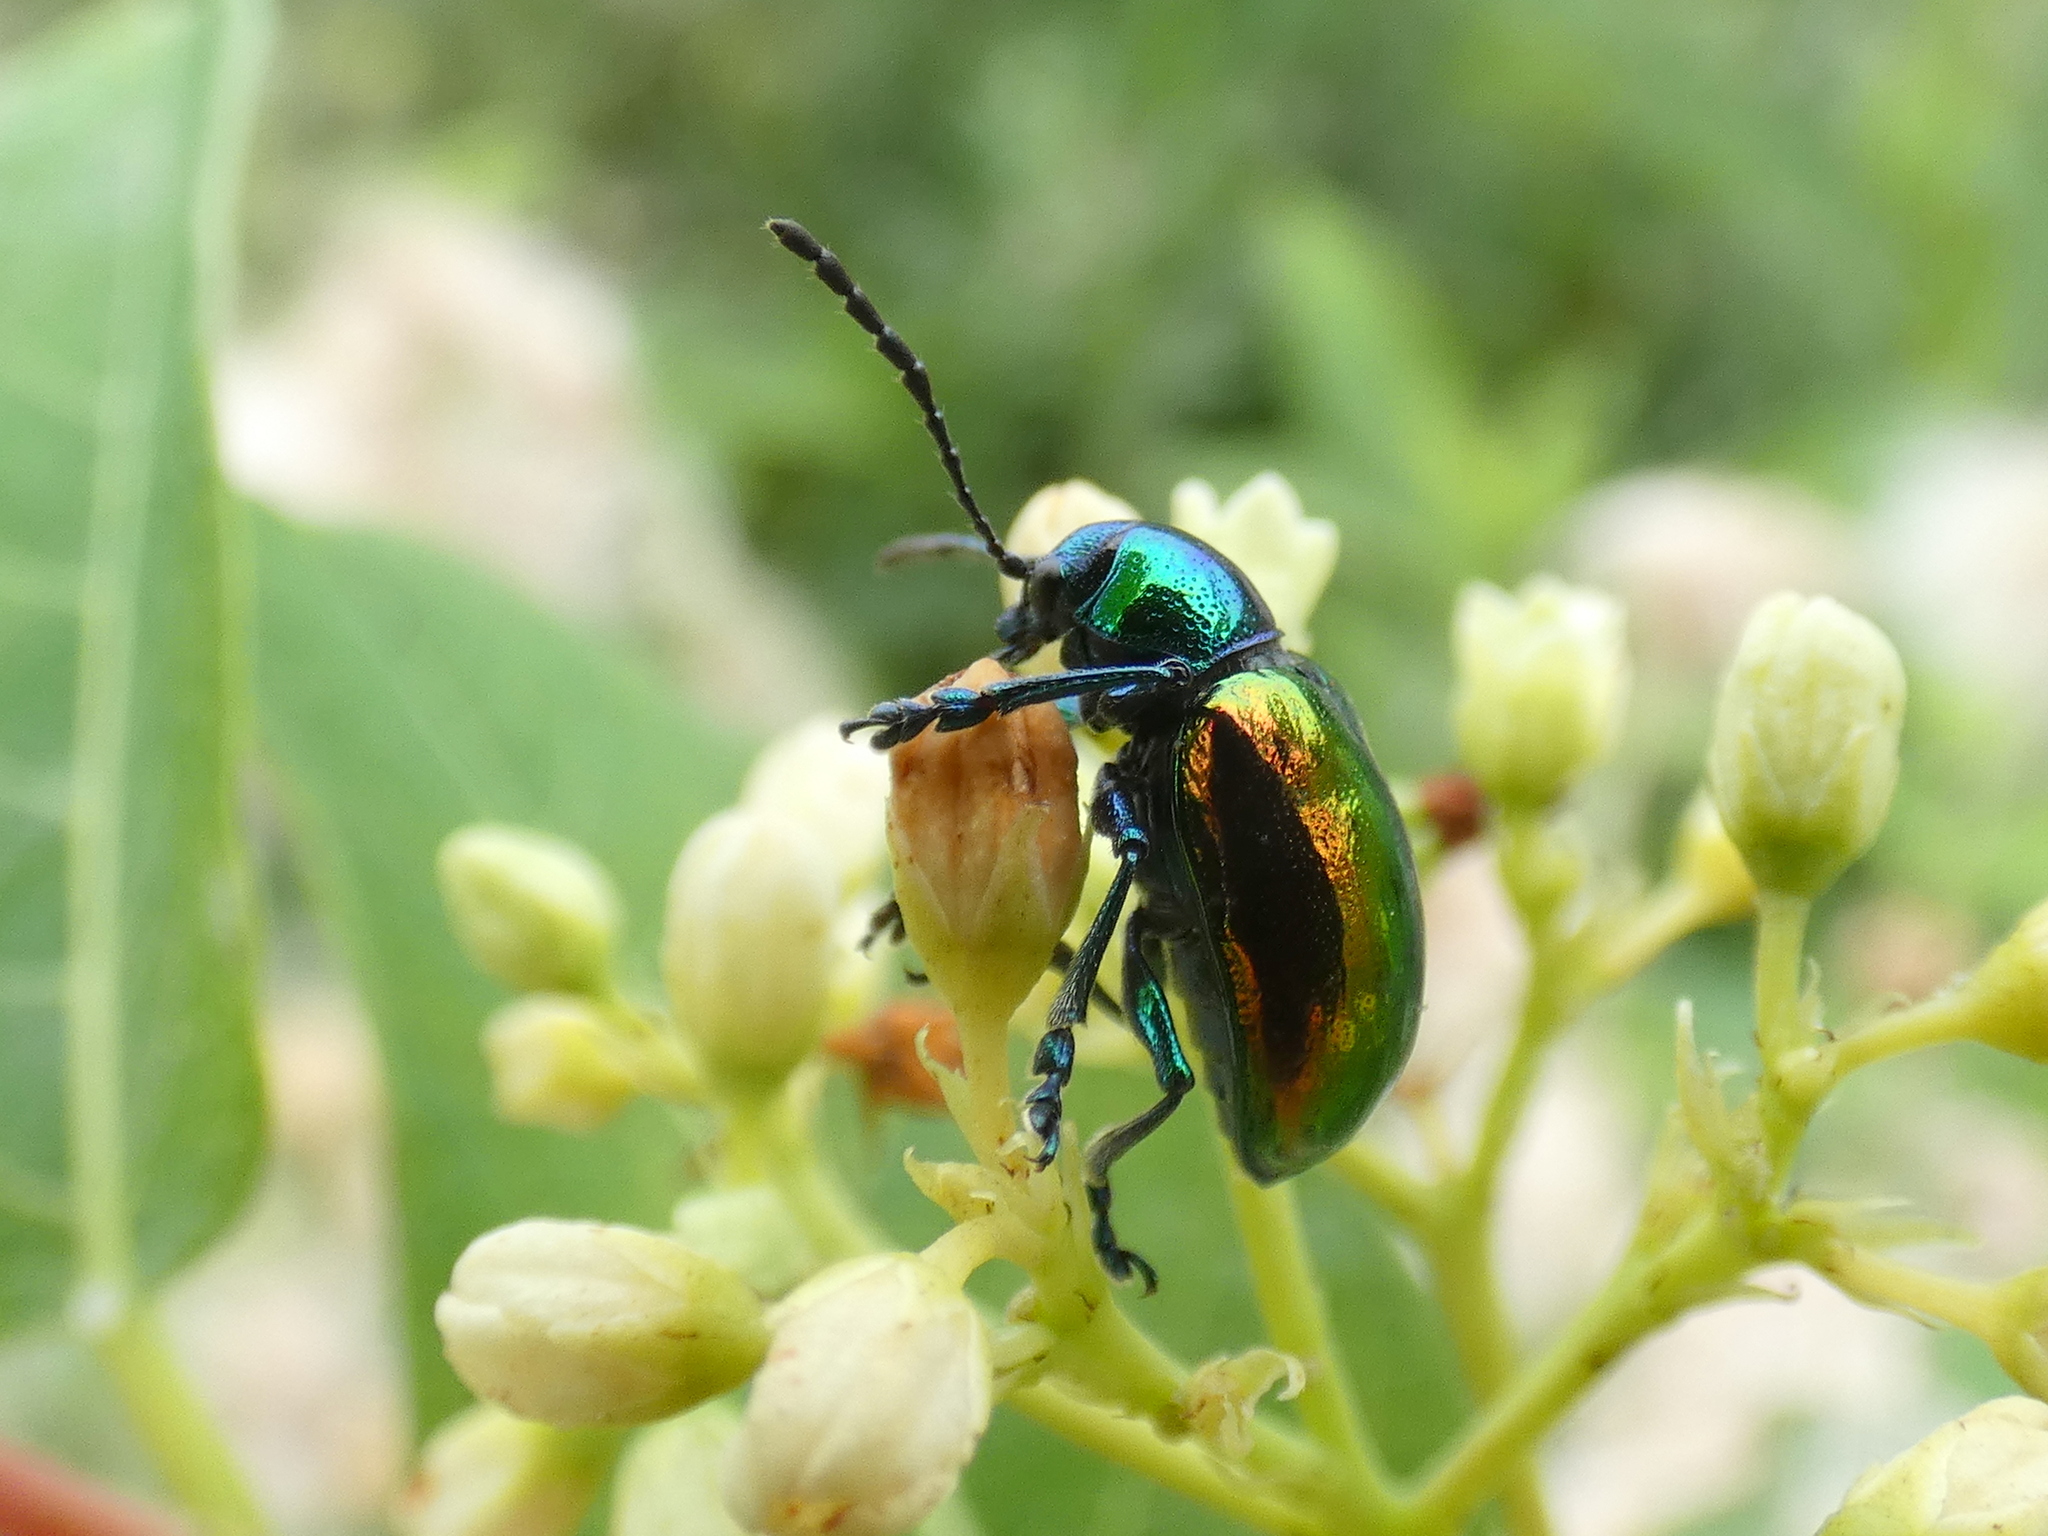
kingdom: Animalia
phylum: Arthropoda
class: Insecta
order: Coleoptera
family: Chrysomelidae
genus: Chrysochus
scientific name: Chrysochus auratus
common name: Dogbane leaf beetle
